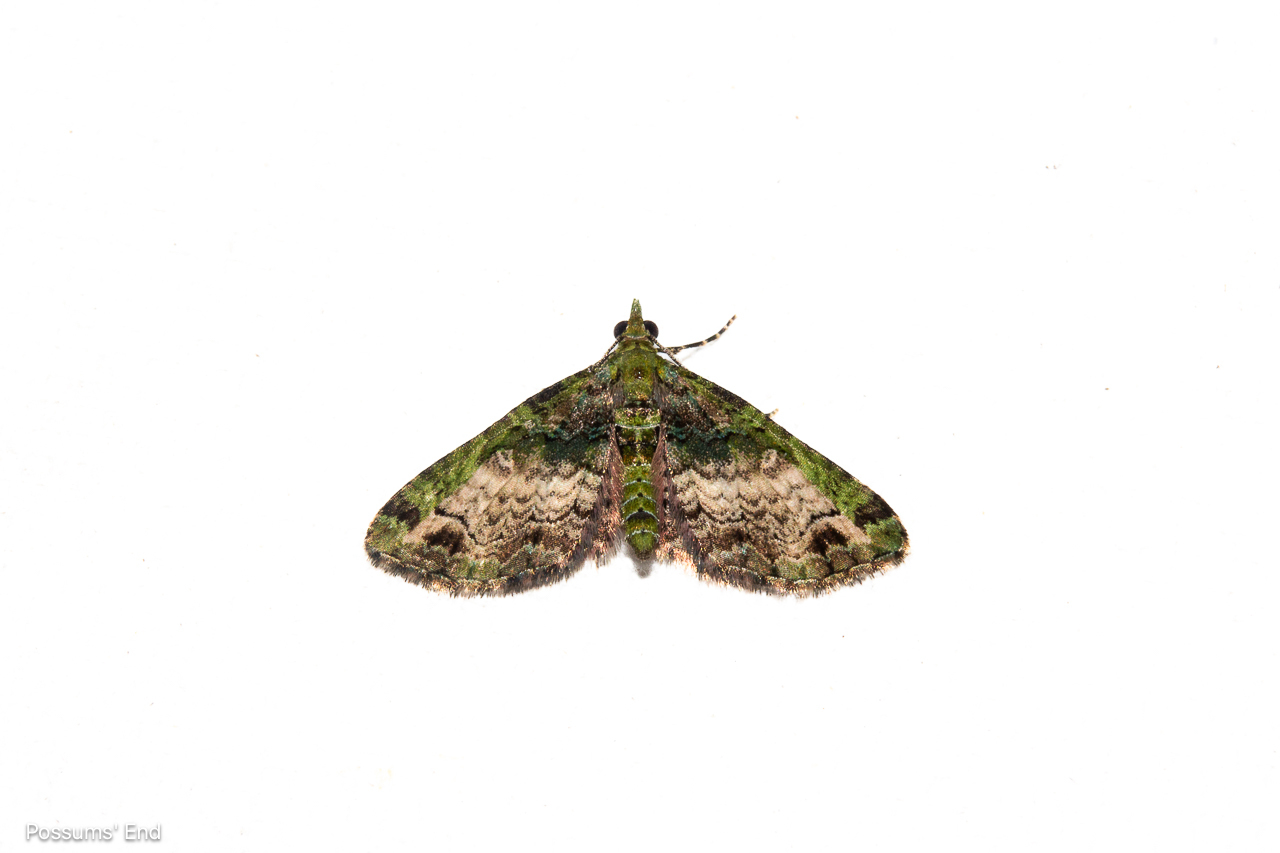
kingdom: Animalia
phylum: Arthropoda
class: Insecta
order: Lepidoptera
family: Geometridae
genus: Pasiphila
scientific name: Pasiphila malachita
